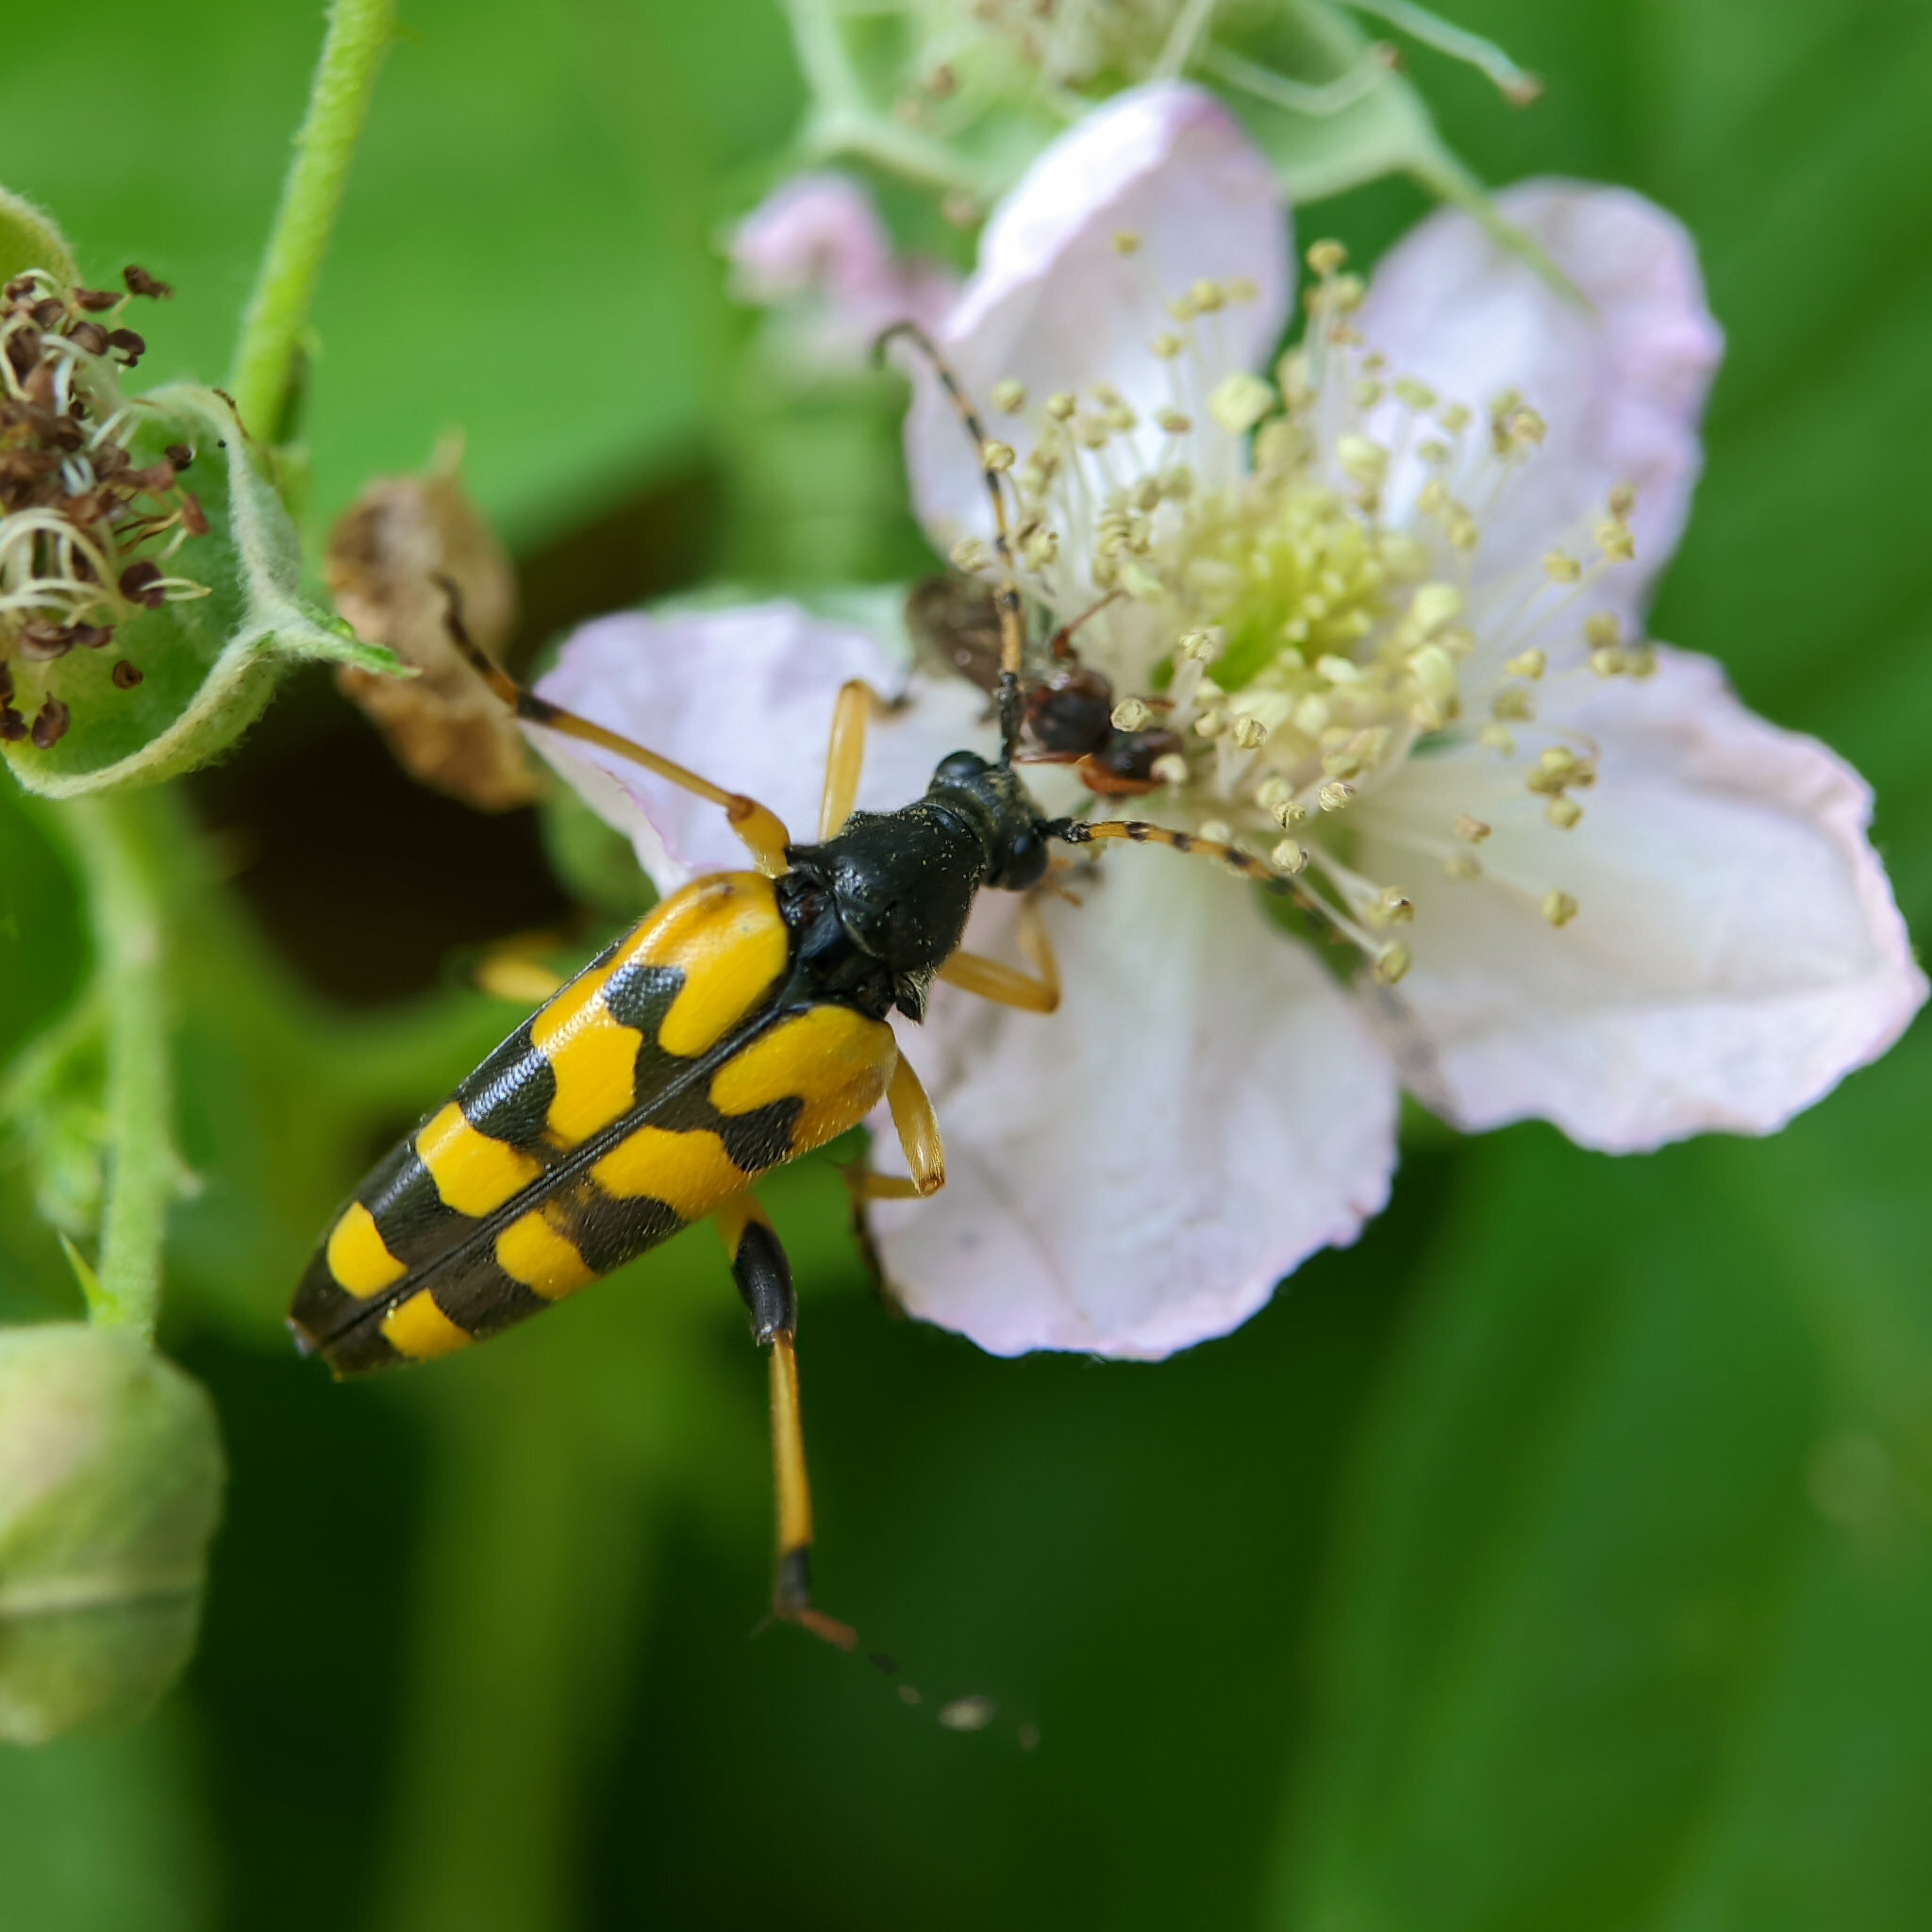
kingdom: Animalia
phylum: Arthropoda
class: Insecta
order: Coleoptera
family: Cerambycidae
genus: Rutpela
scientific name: Rutpela maculata
